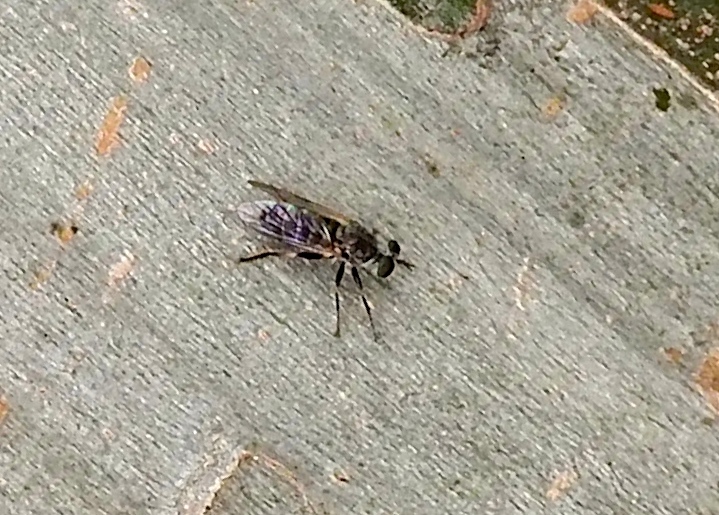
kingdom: Animalia
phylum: Arthropoda
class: Insecta
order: Diptera
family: Asilidae
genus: Atomosia
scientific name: Atomosia
